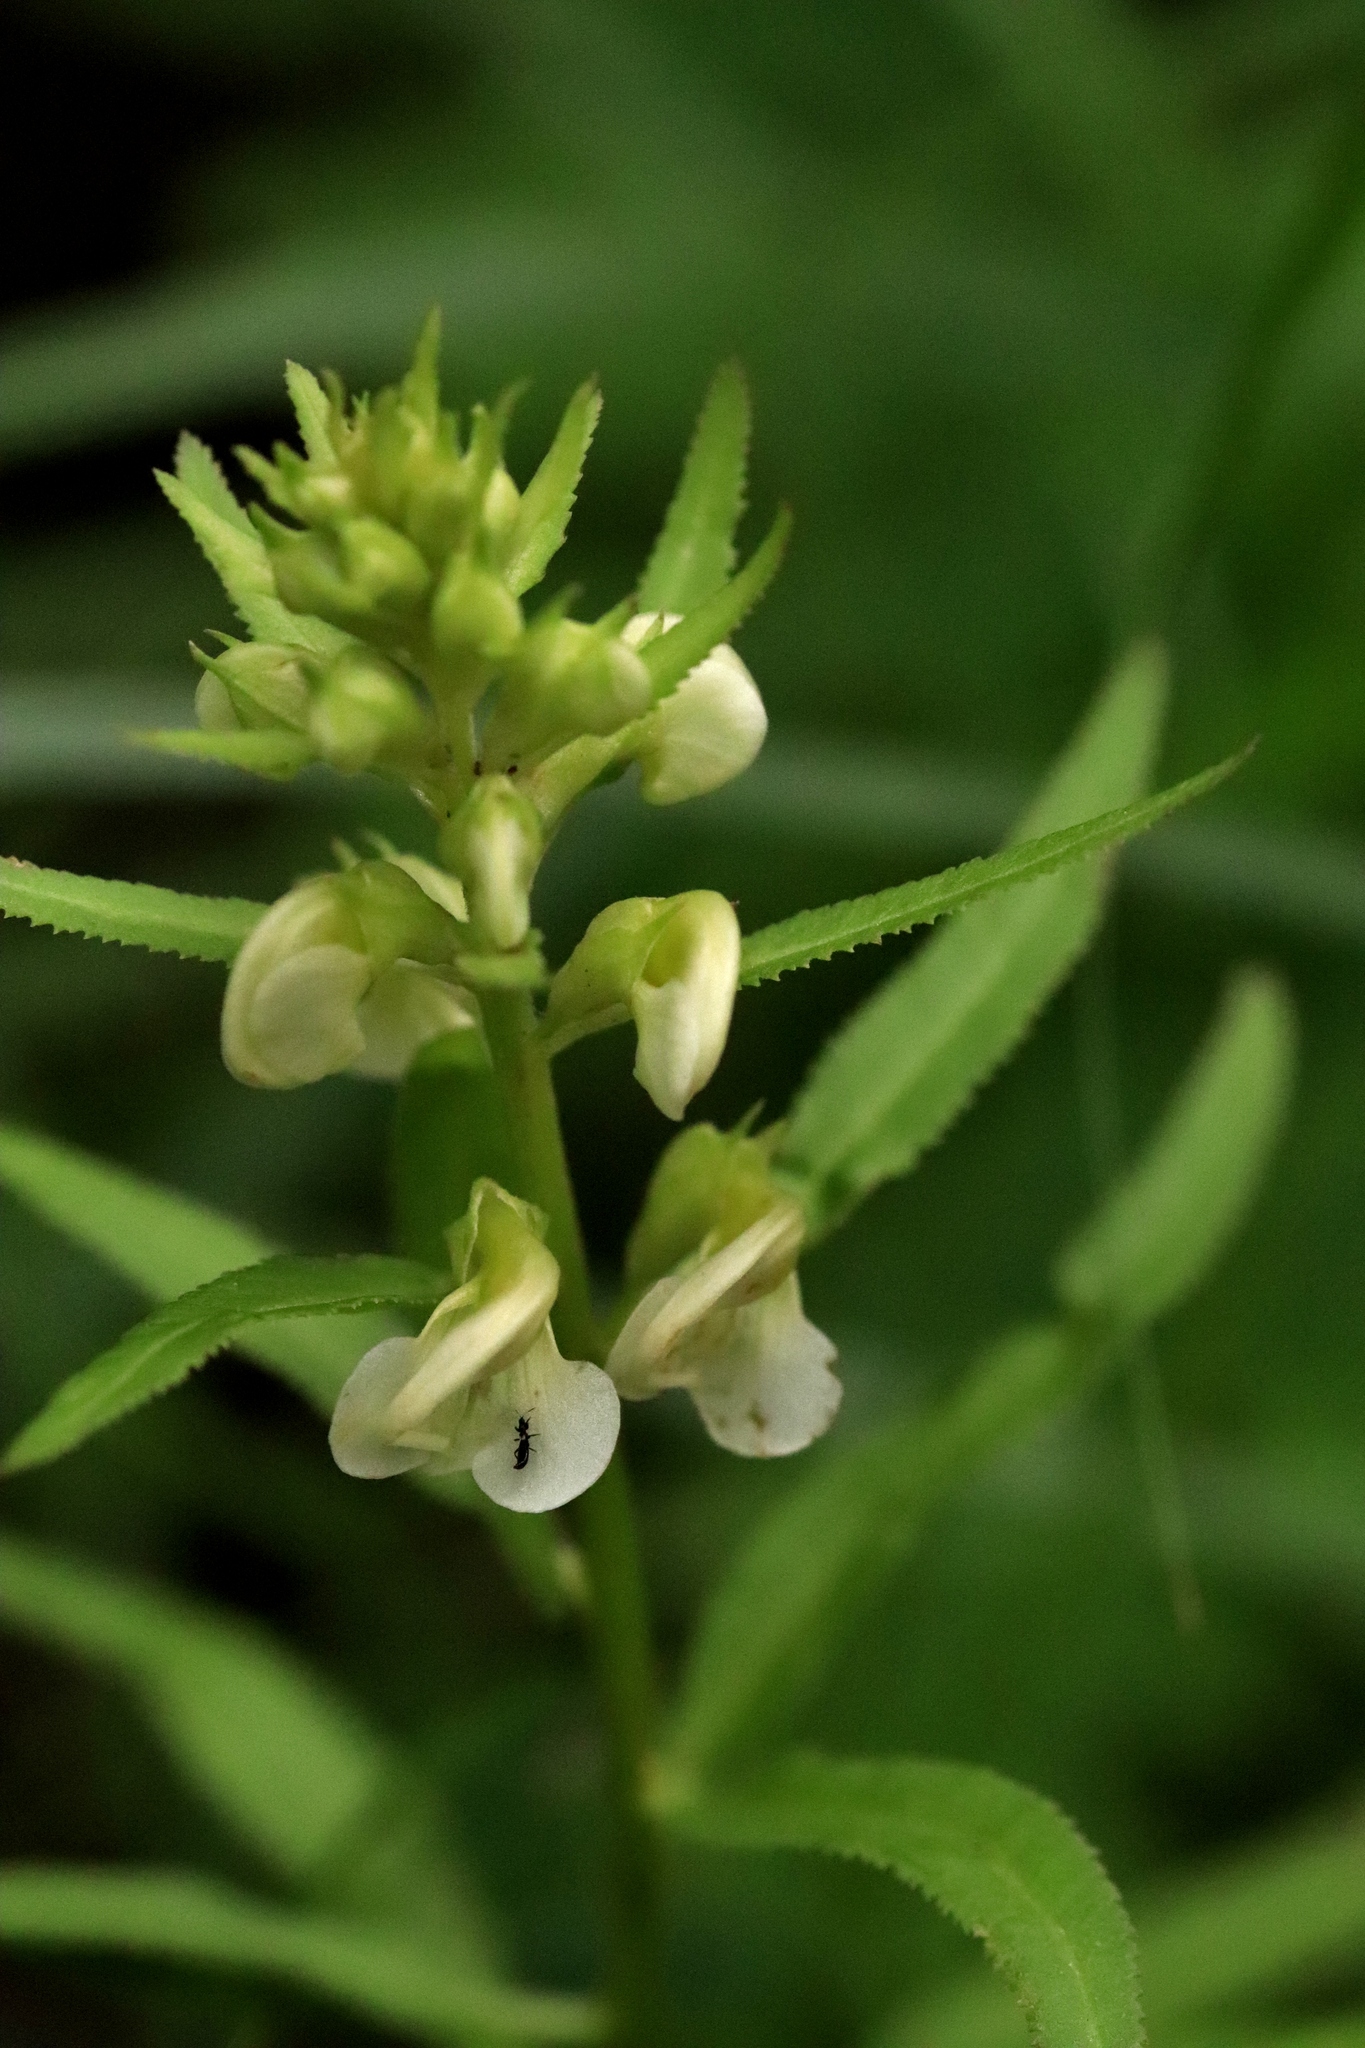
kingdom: Plantae
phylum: Tracheophyta
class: Magnoliopsida
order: Lamiales
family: Orobanchaceae
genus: Pedicularis
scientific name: Pedicularis racemosa
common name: Leafy lousewort
